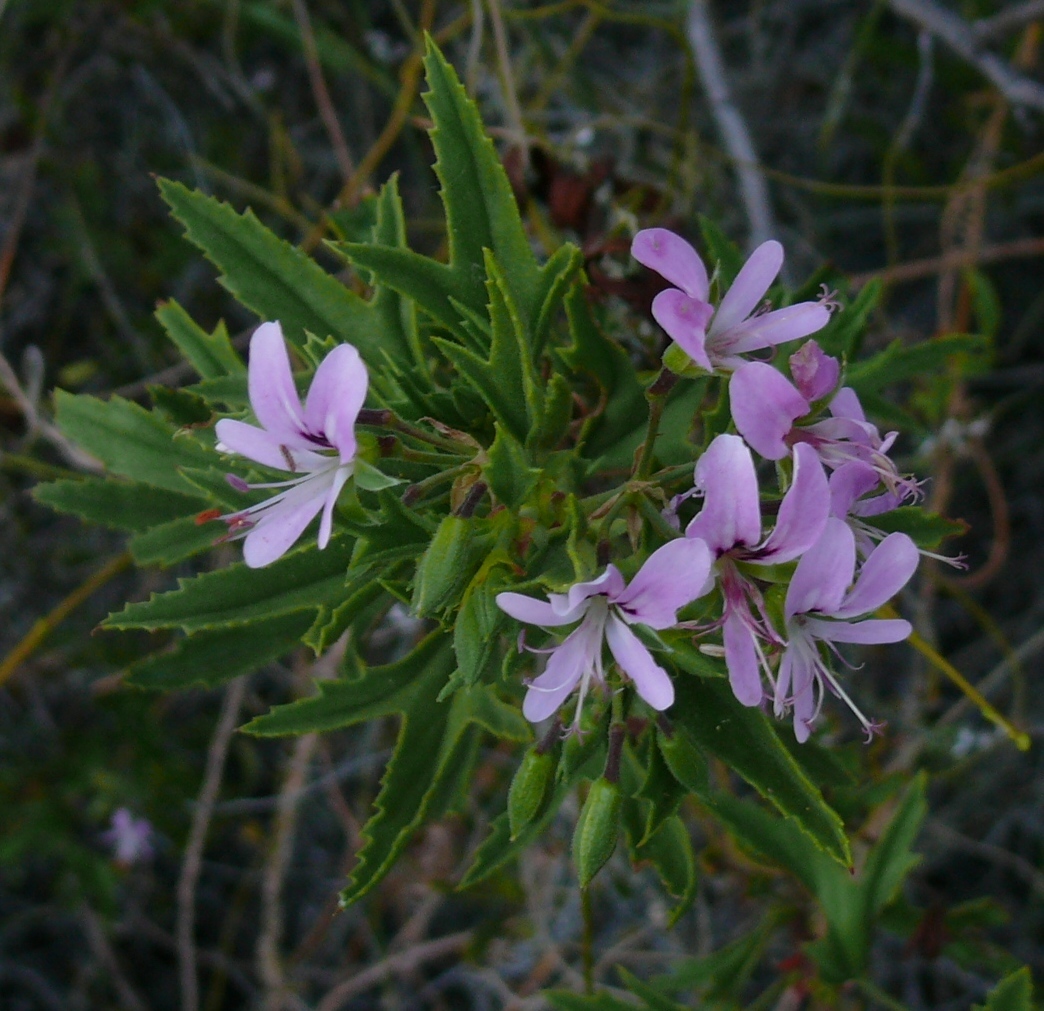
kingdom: Plantae
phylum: Tracheophyta
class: Magnoliopsida
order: Geraniales
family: Geraniaceae
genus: Pelargonium
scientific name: Pelargonium scabrum
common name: Apricot geranium
